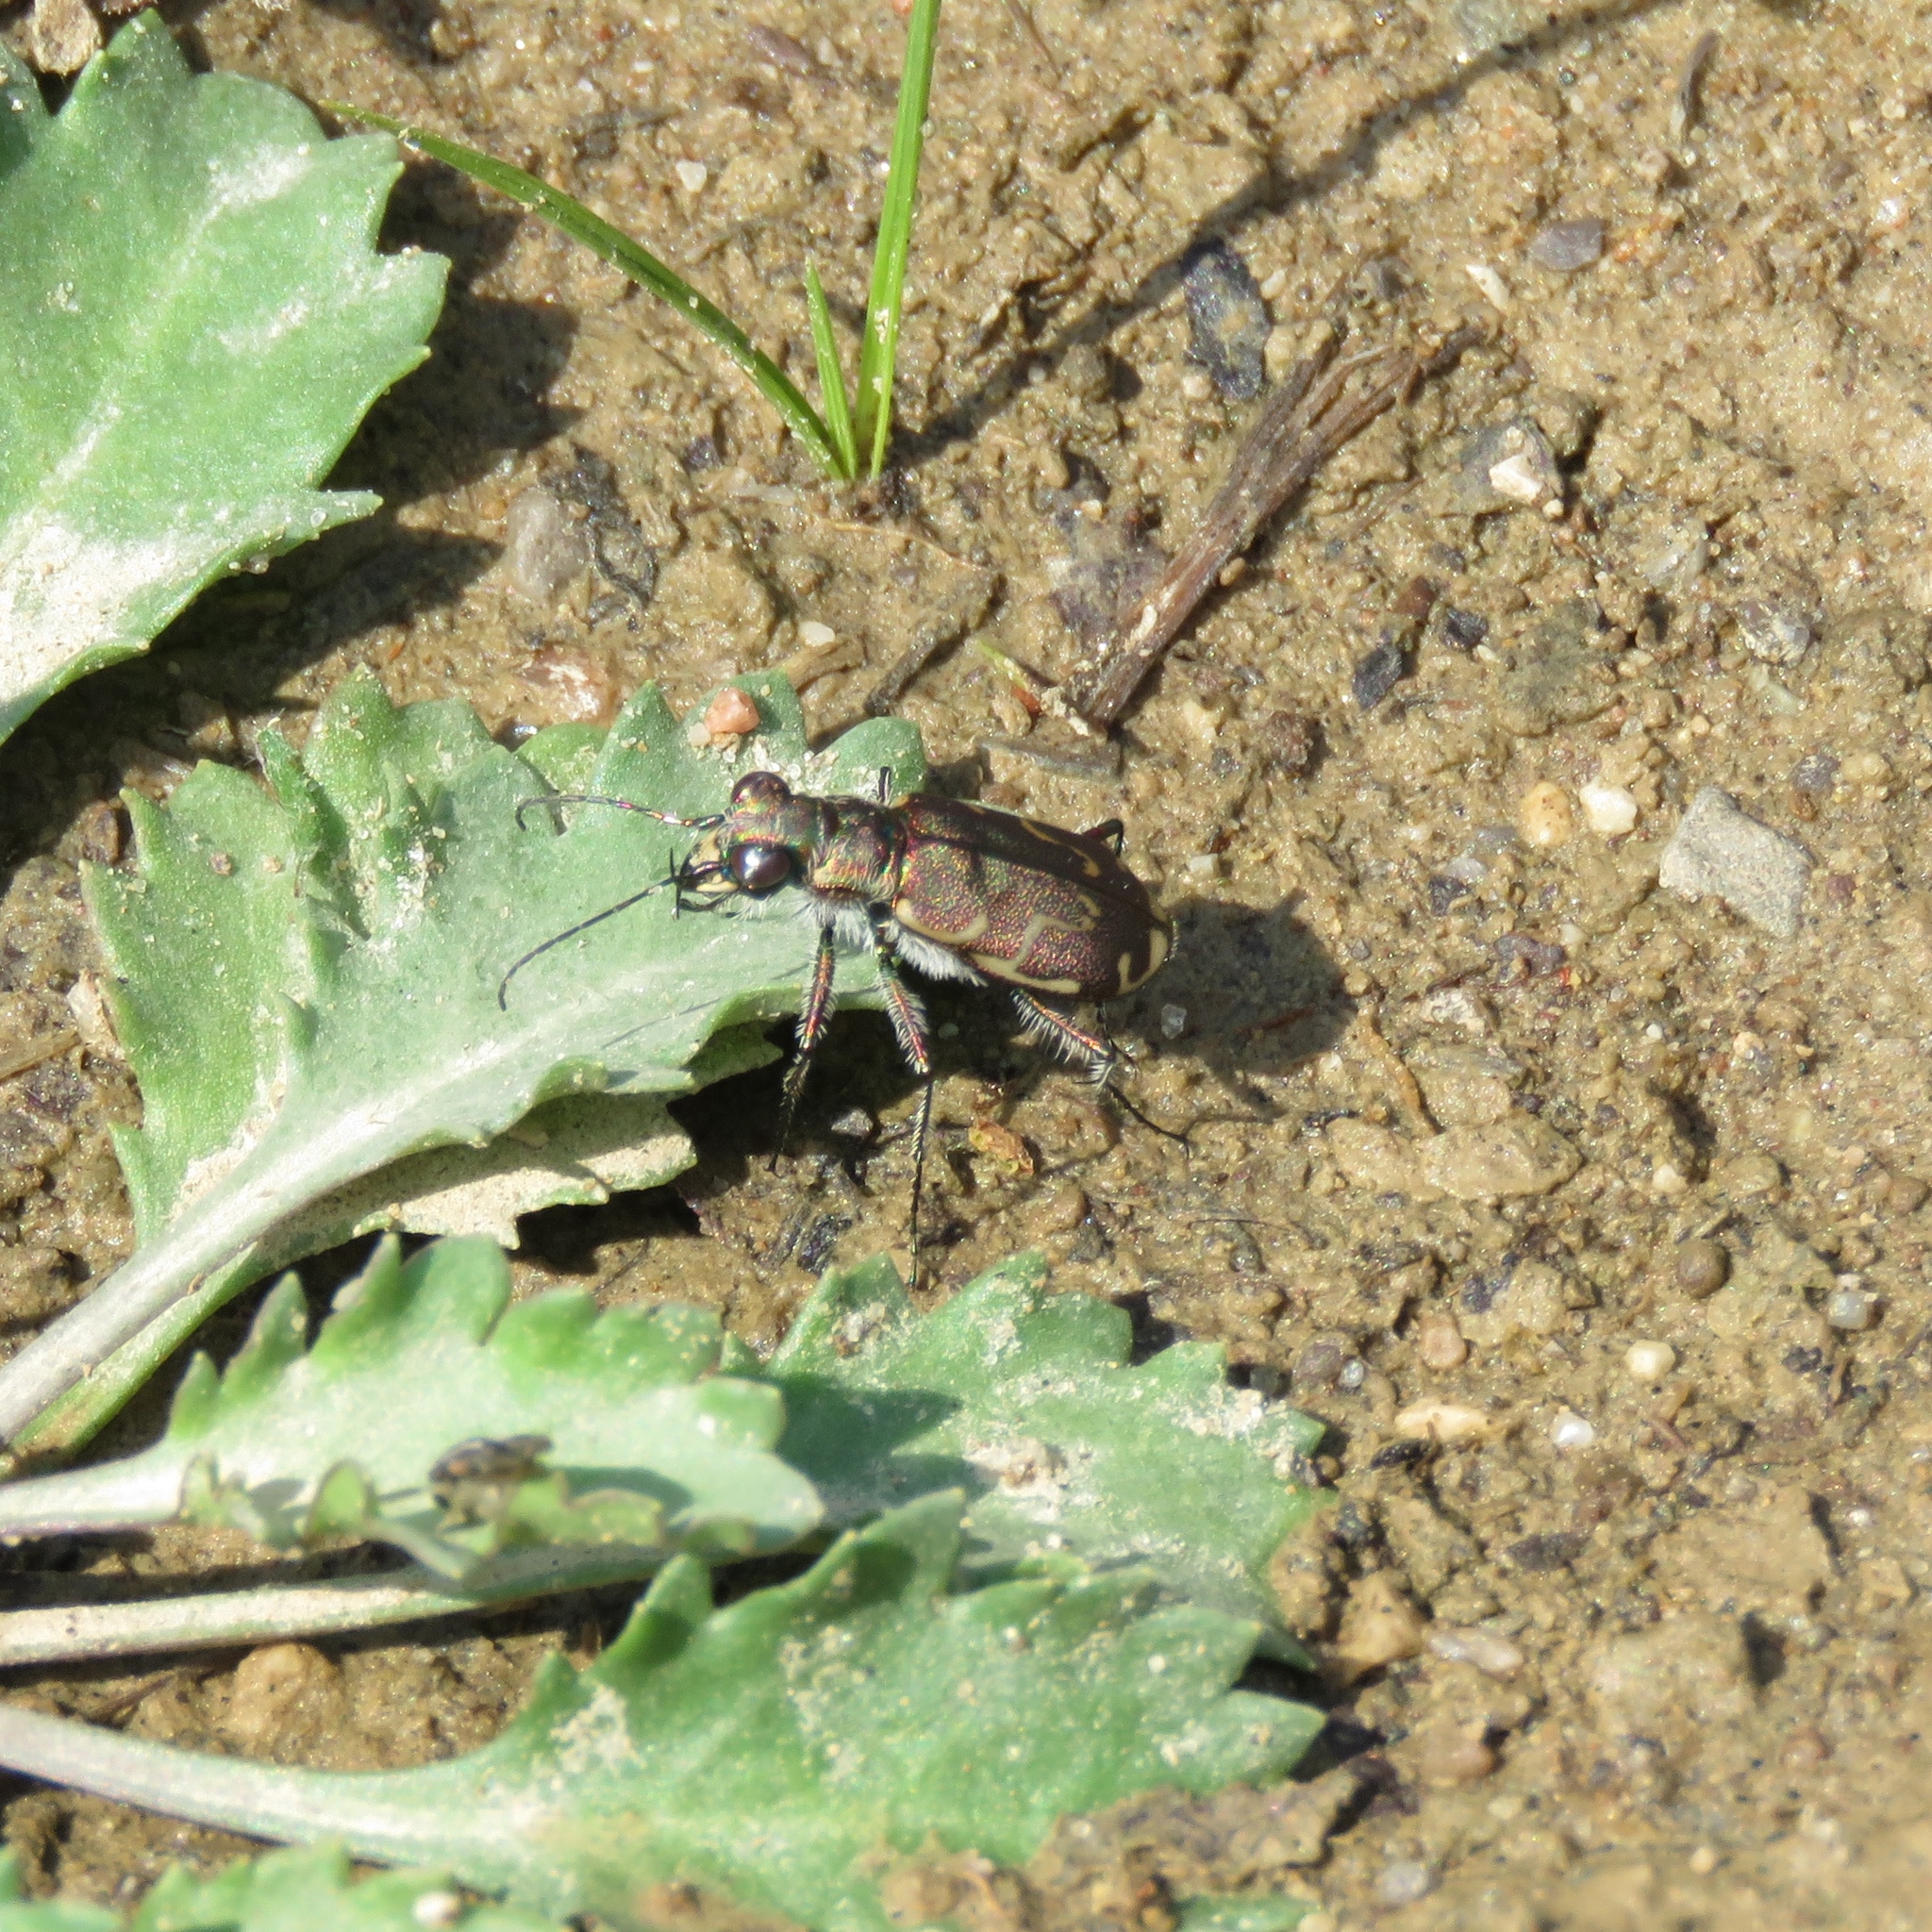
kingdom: Animalia
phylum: Arthropoda
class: Insecta
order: Coleoptera
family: Carabidae
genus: Cicindela
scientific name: Cicindela repanda
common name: Bronzed tiger beetle
